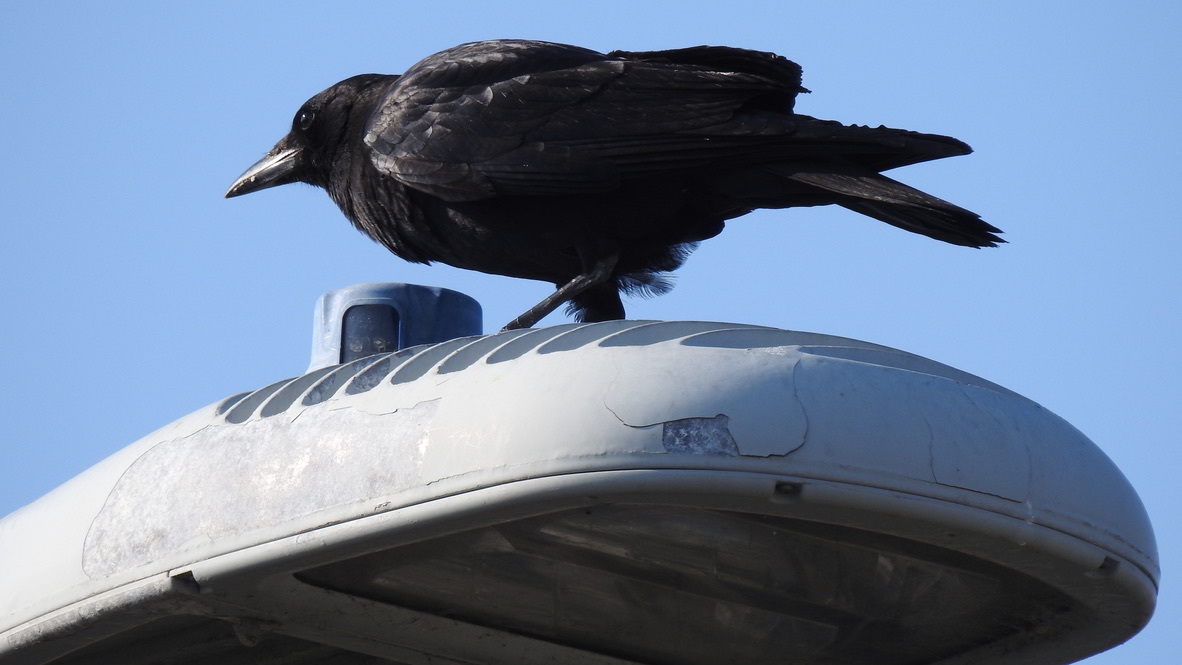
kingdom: Animalia
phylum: Chordata
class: Aves
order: Passeriformes
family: Corvidae
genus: Corvus
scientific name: Corvus brachyrhynchos
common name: American crow
